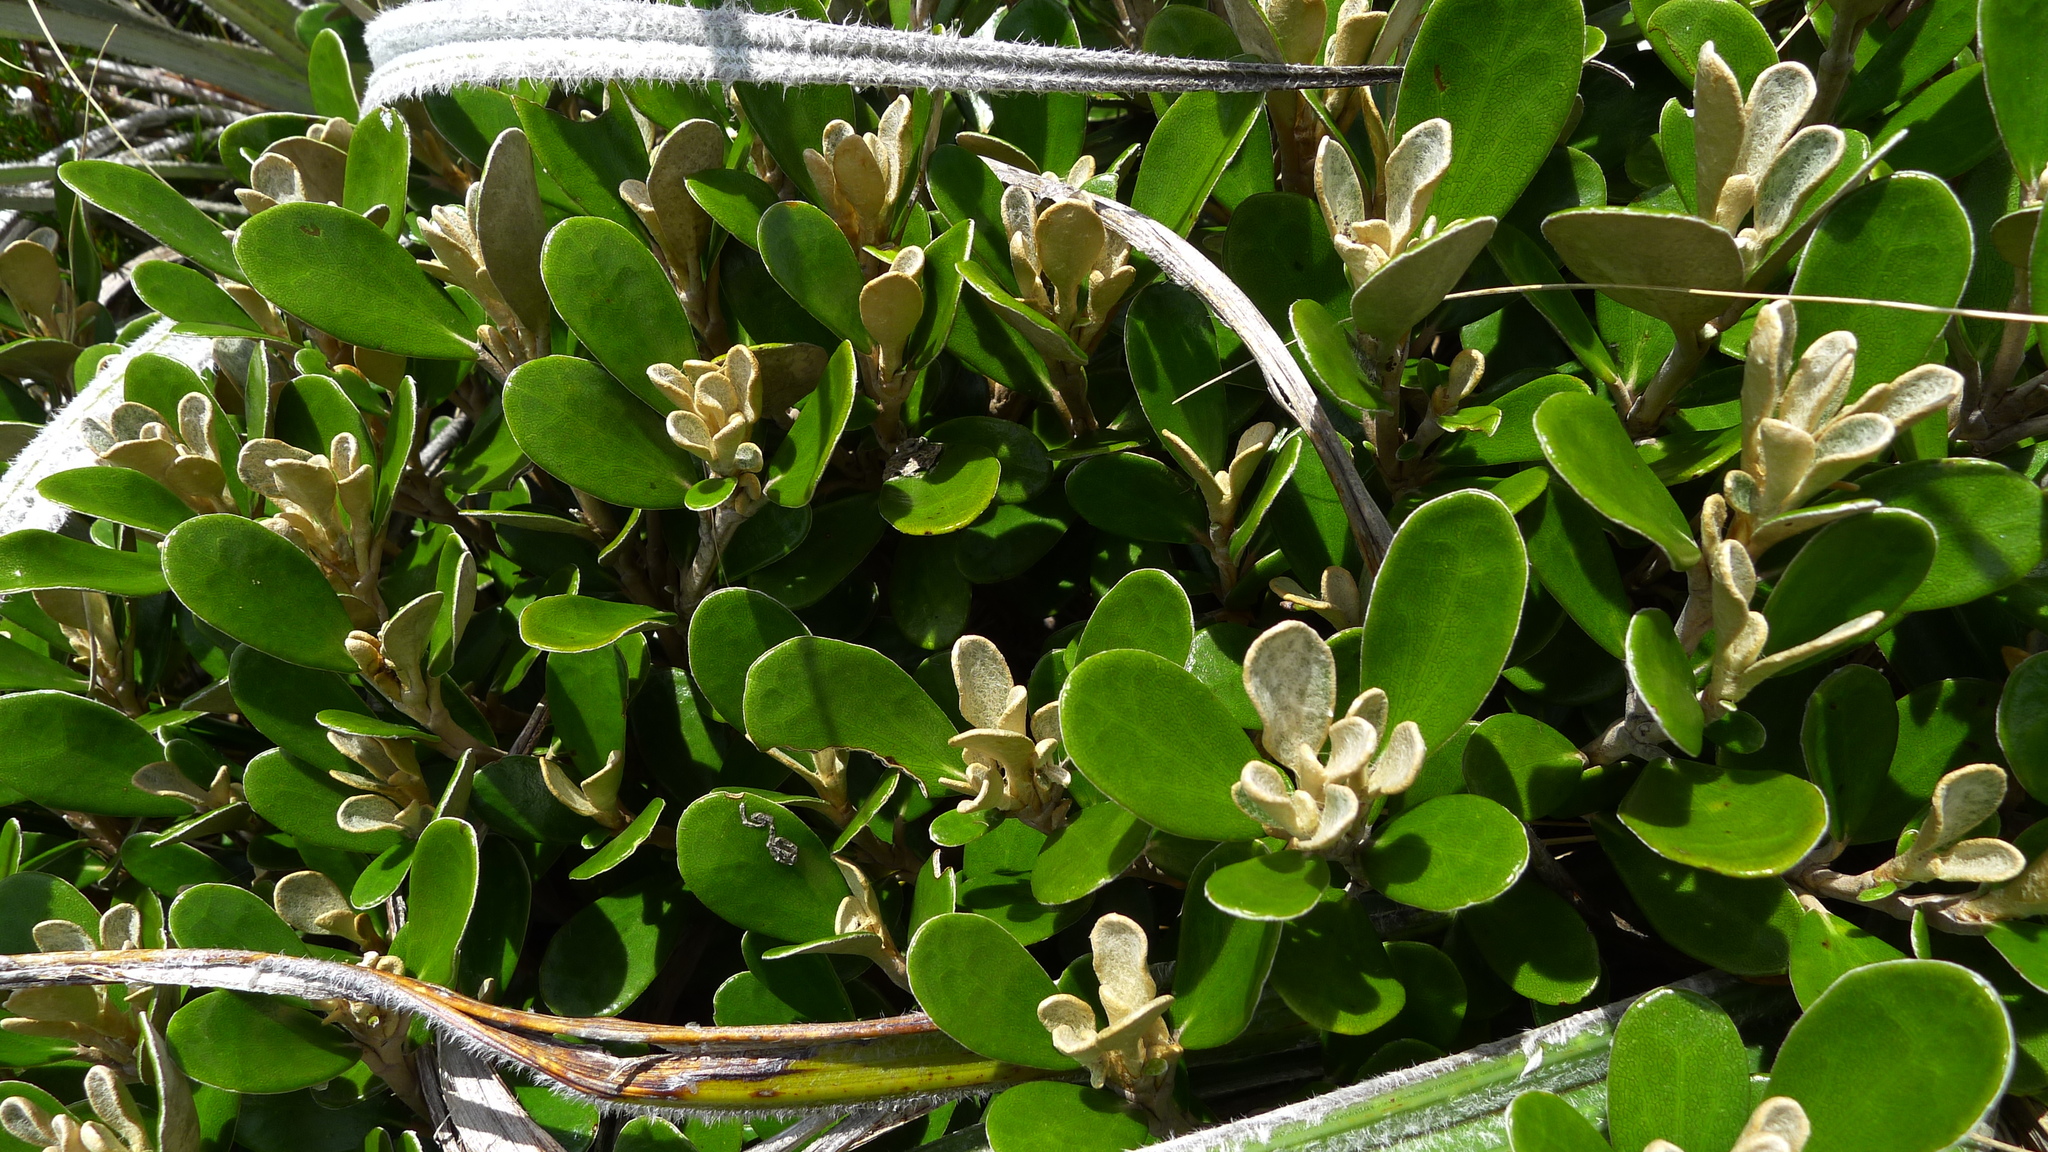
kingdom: Plantae
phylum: Tracheophyta
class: Magnoliopsida
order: Asterales
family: Asteraceae
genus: Brachyglottis
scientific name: Brachyglottis bidwillii
